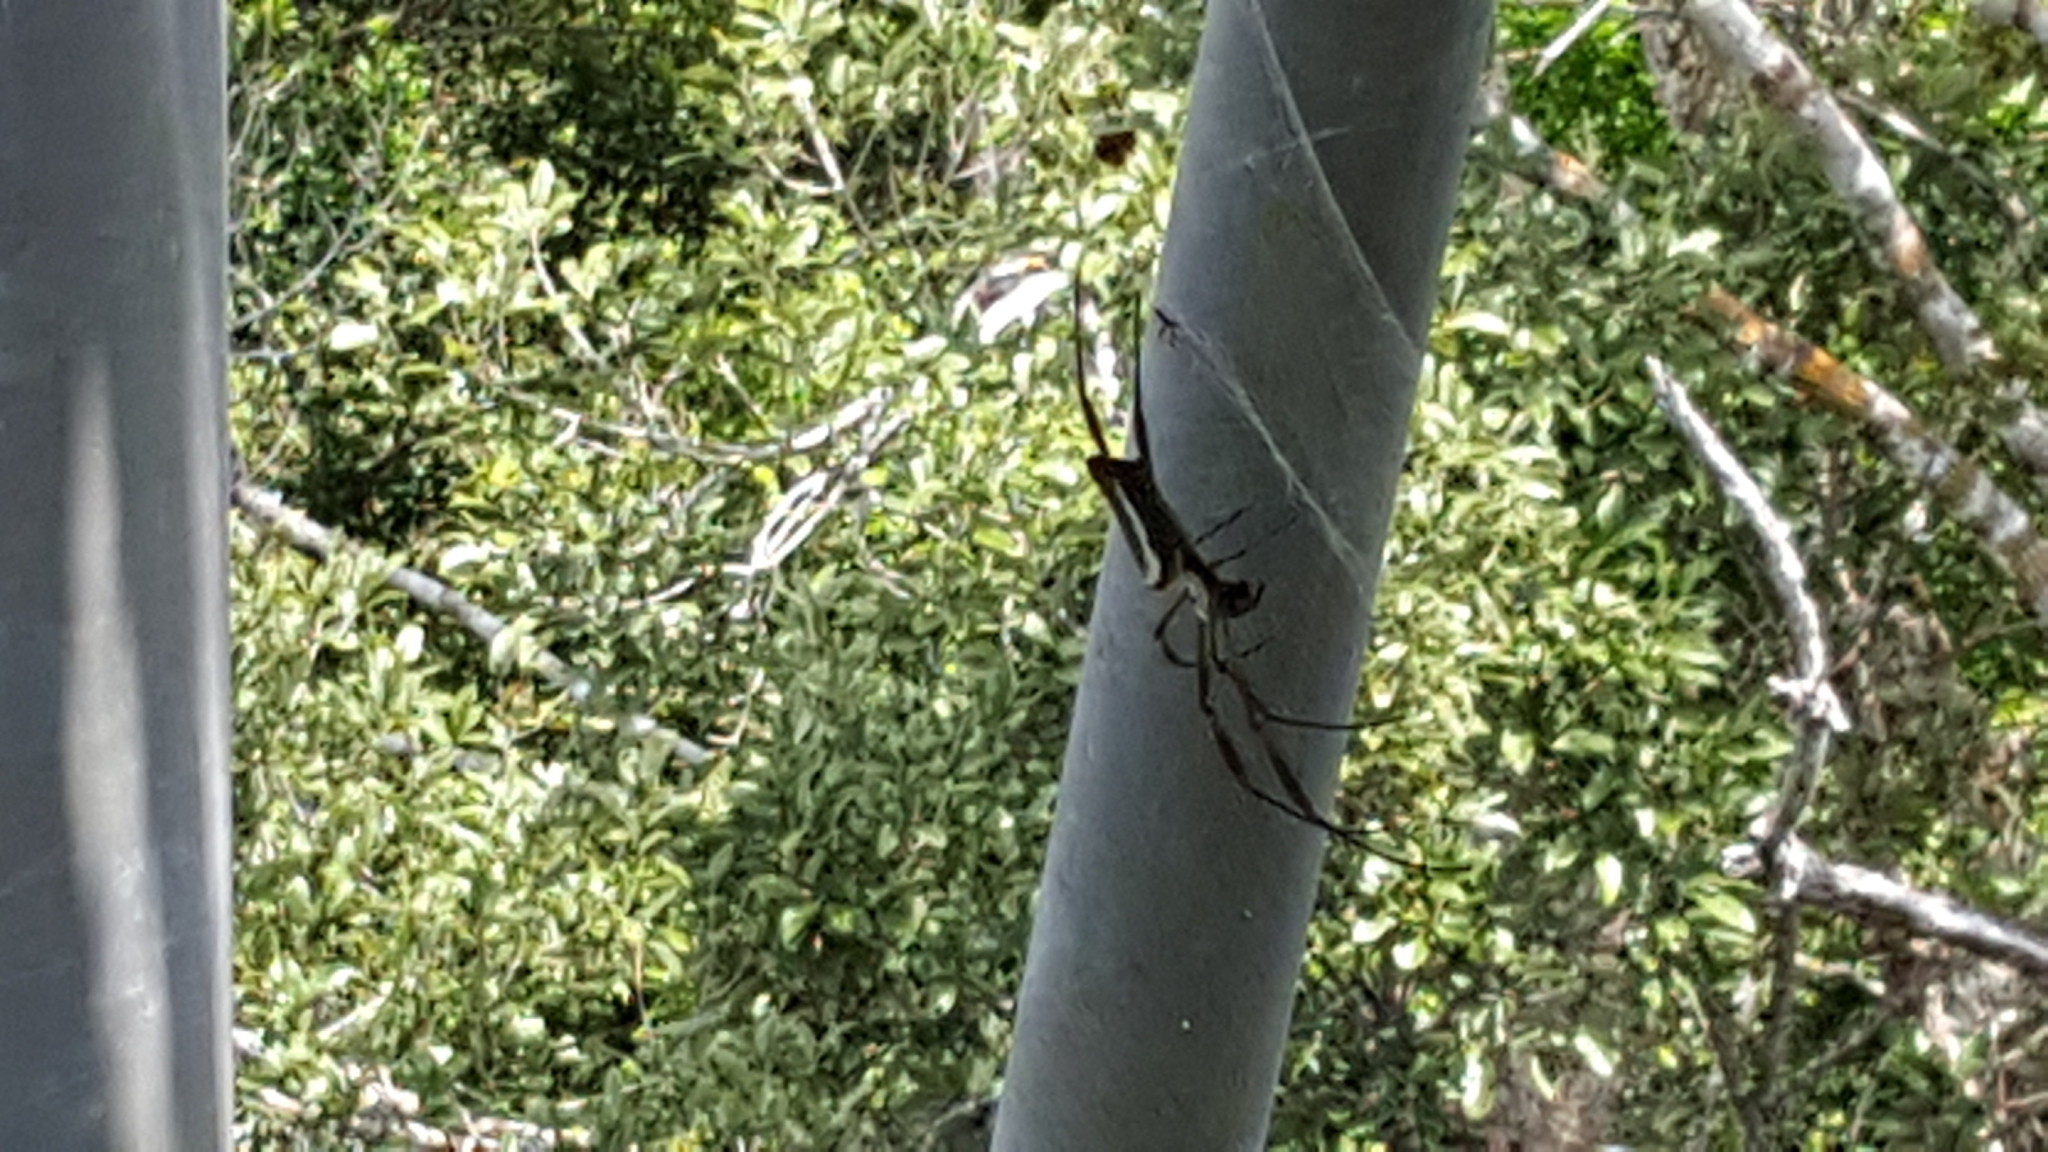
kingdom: Animalia
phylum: Arthropoda
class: Arachnida
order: Araneae
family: Araneidae
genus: Trichonephila
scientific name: Trichonephila clavipes
